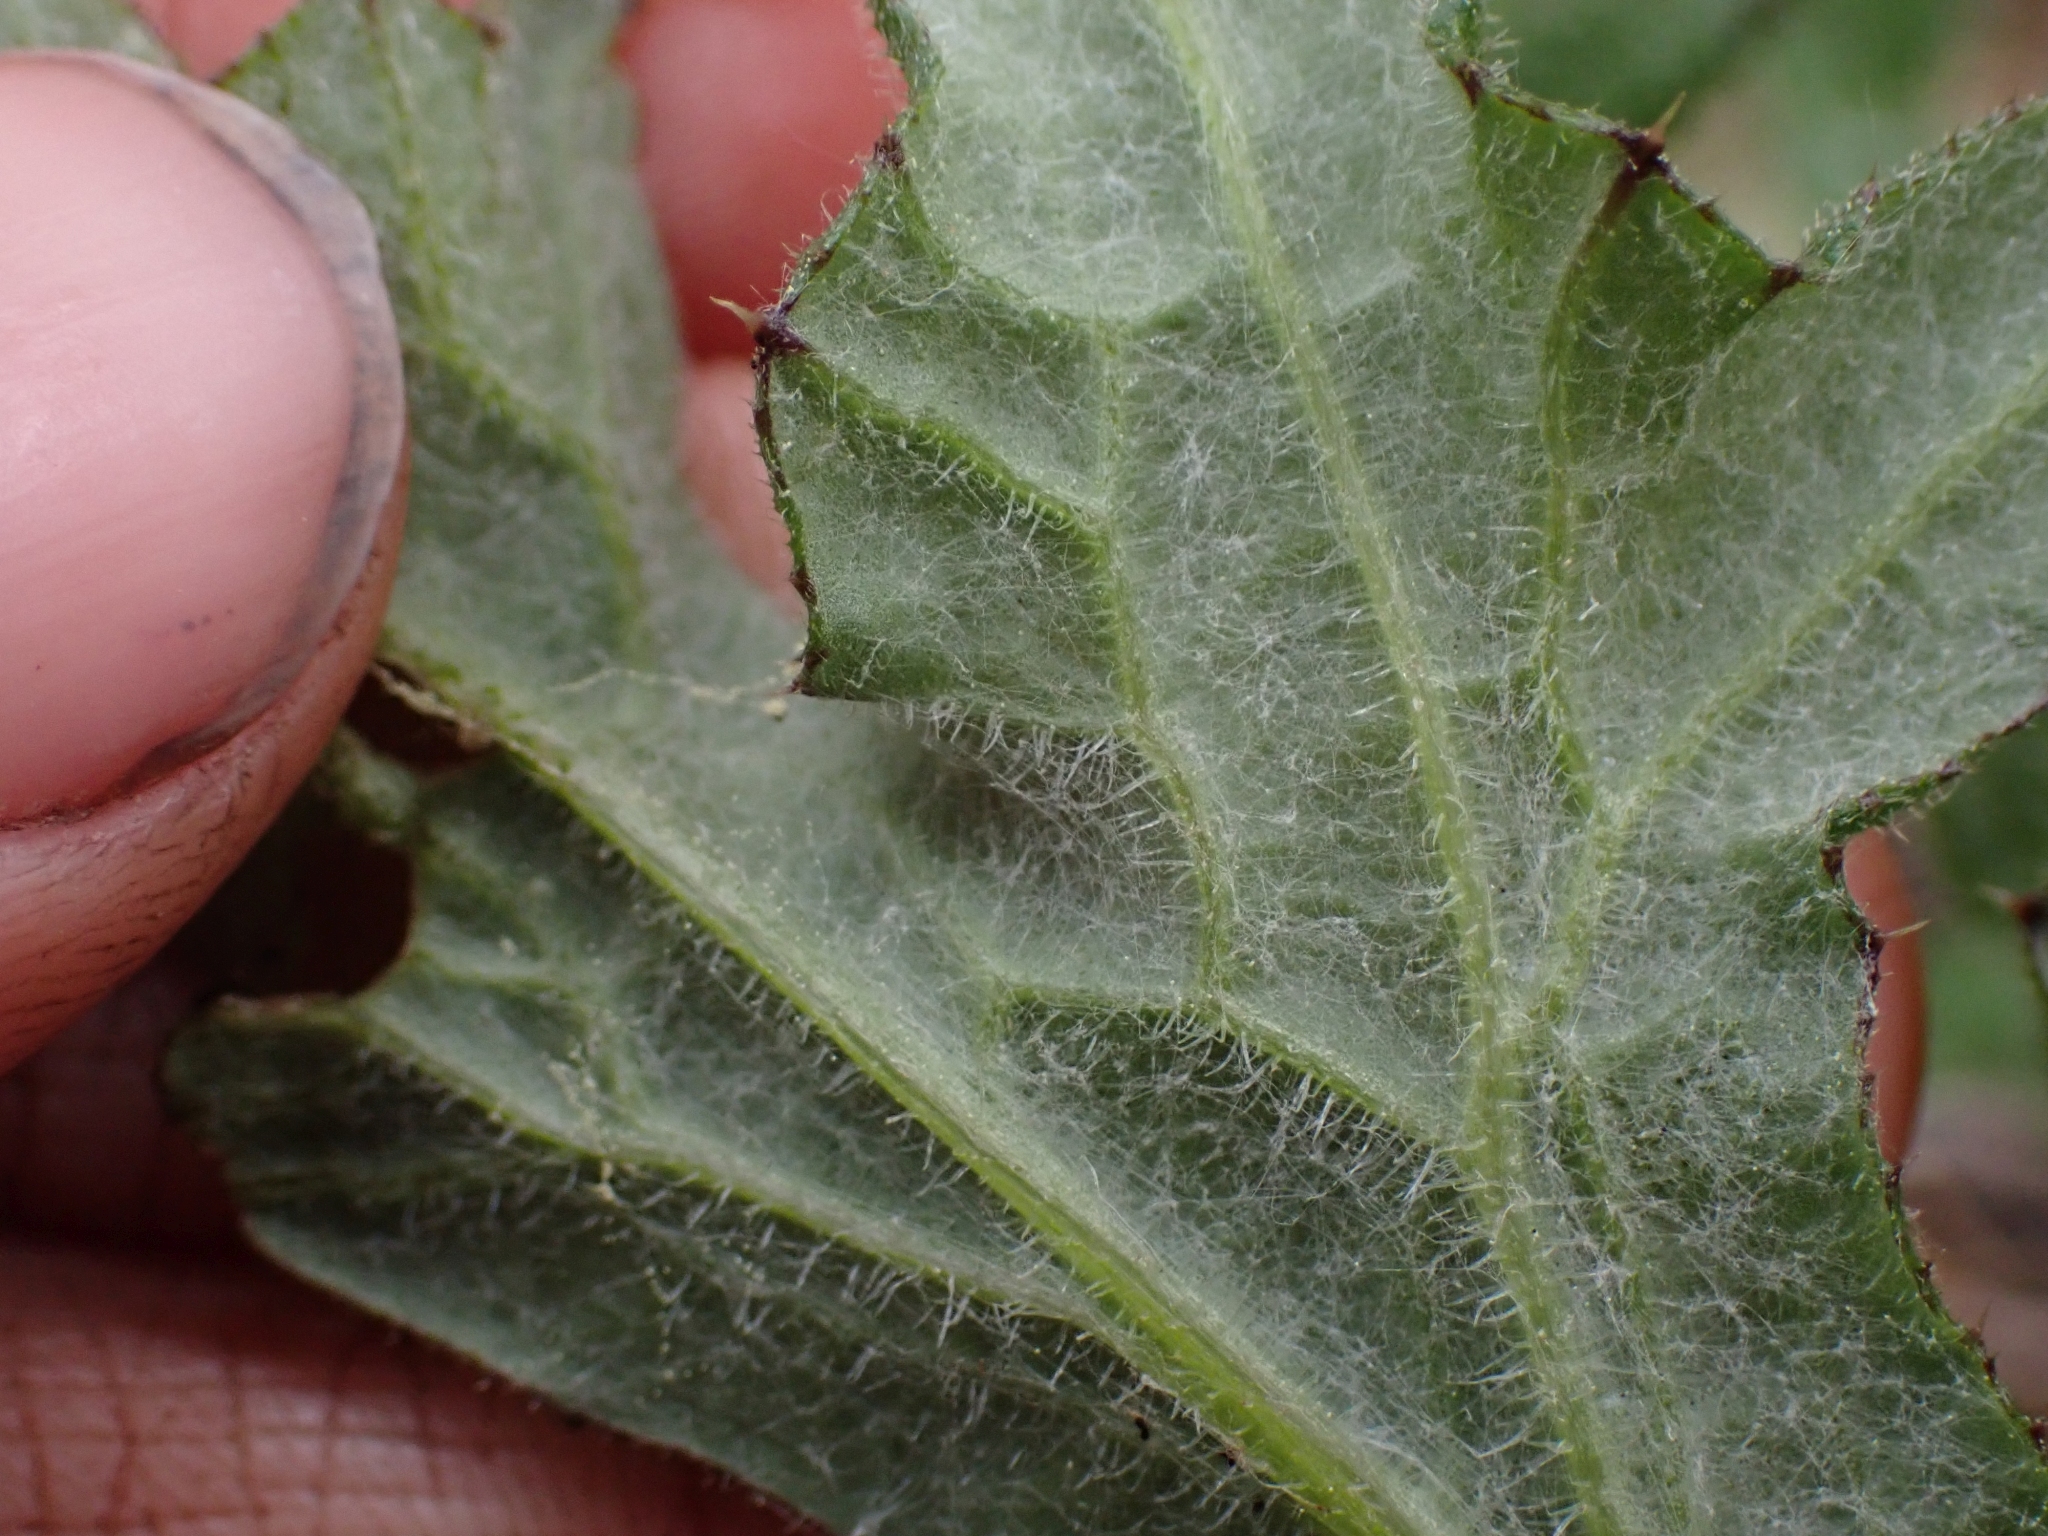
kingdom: Plantae
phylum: Tracheophyta
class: Magnoliopsida
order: Asterales
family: Asteraceae
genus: Cirsium
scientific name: Cirsium vulgare
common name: Bull thistle
